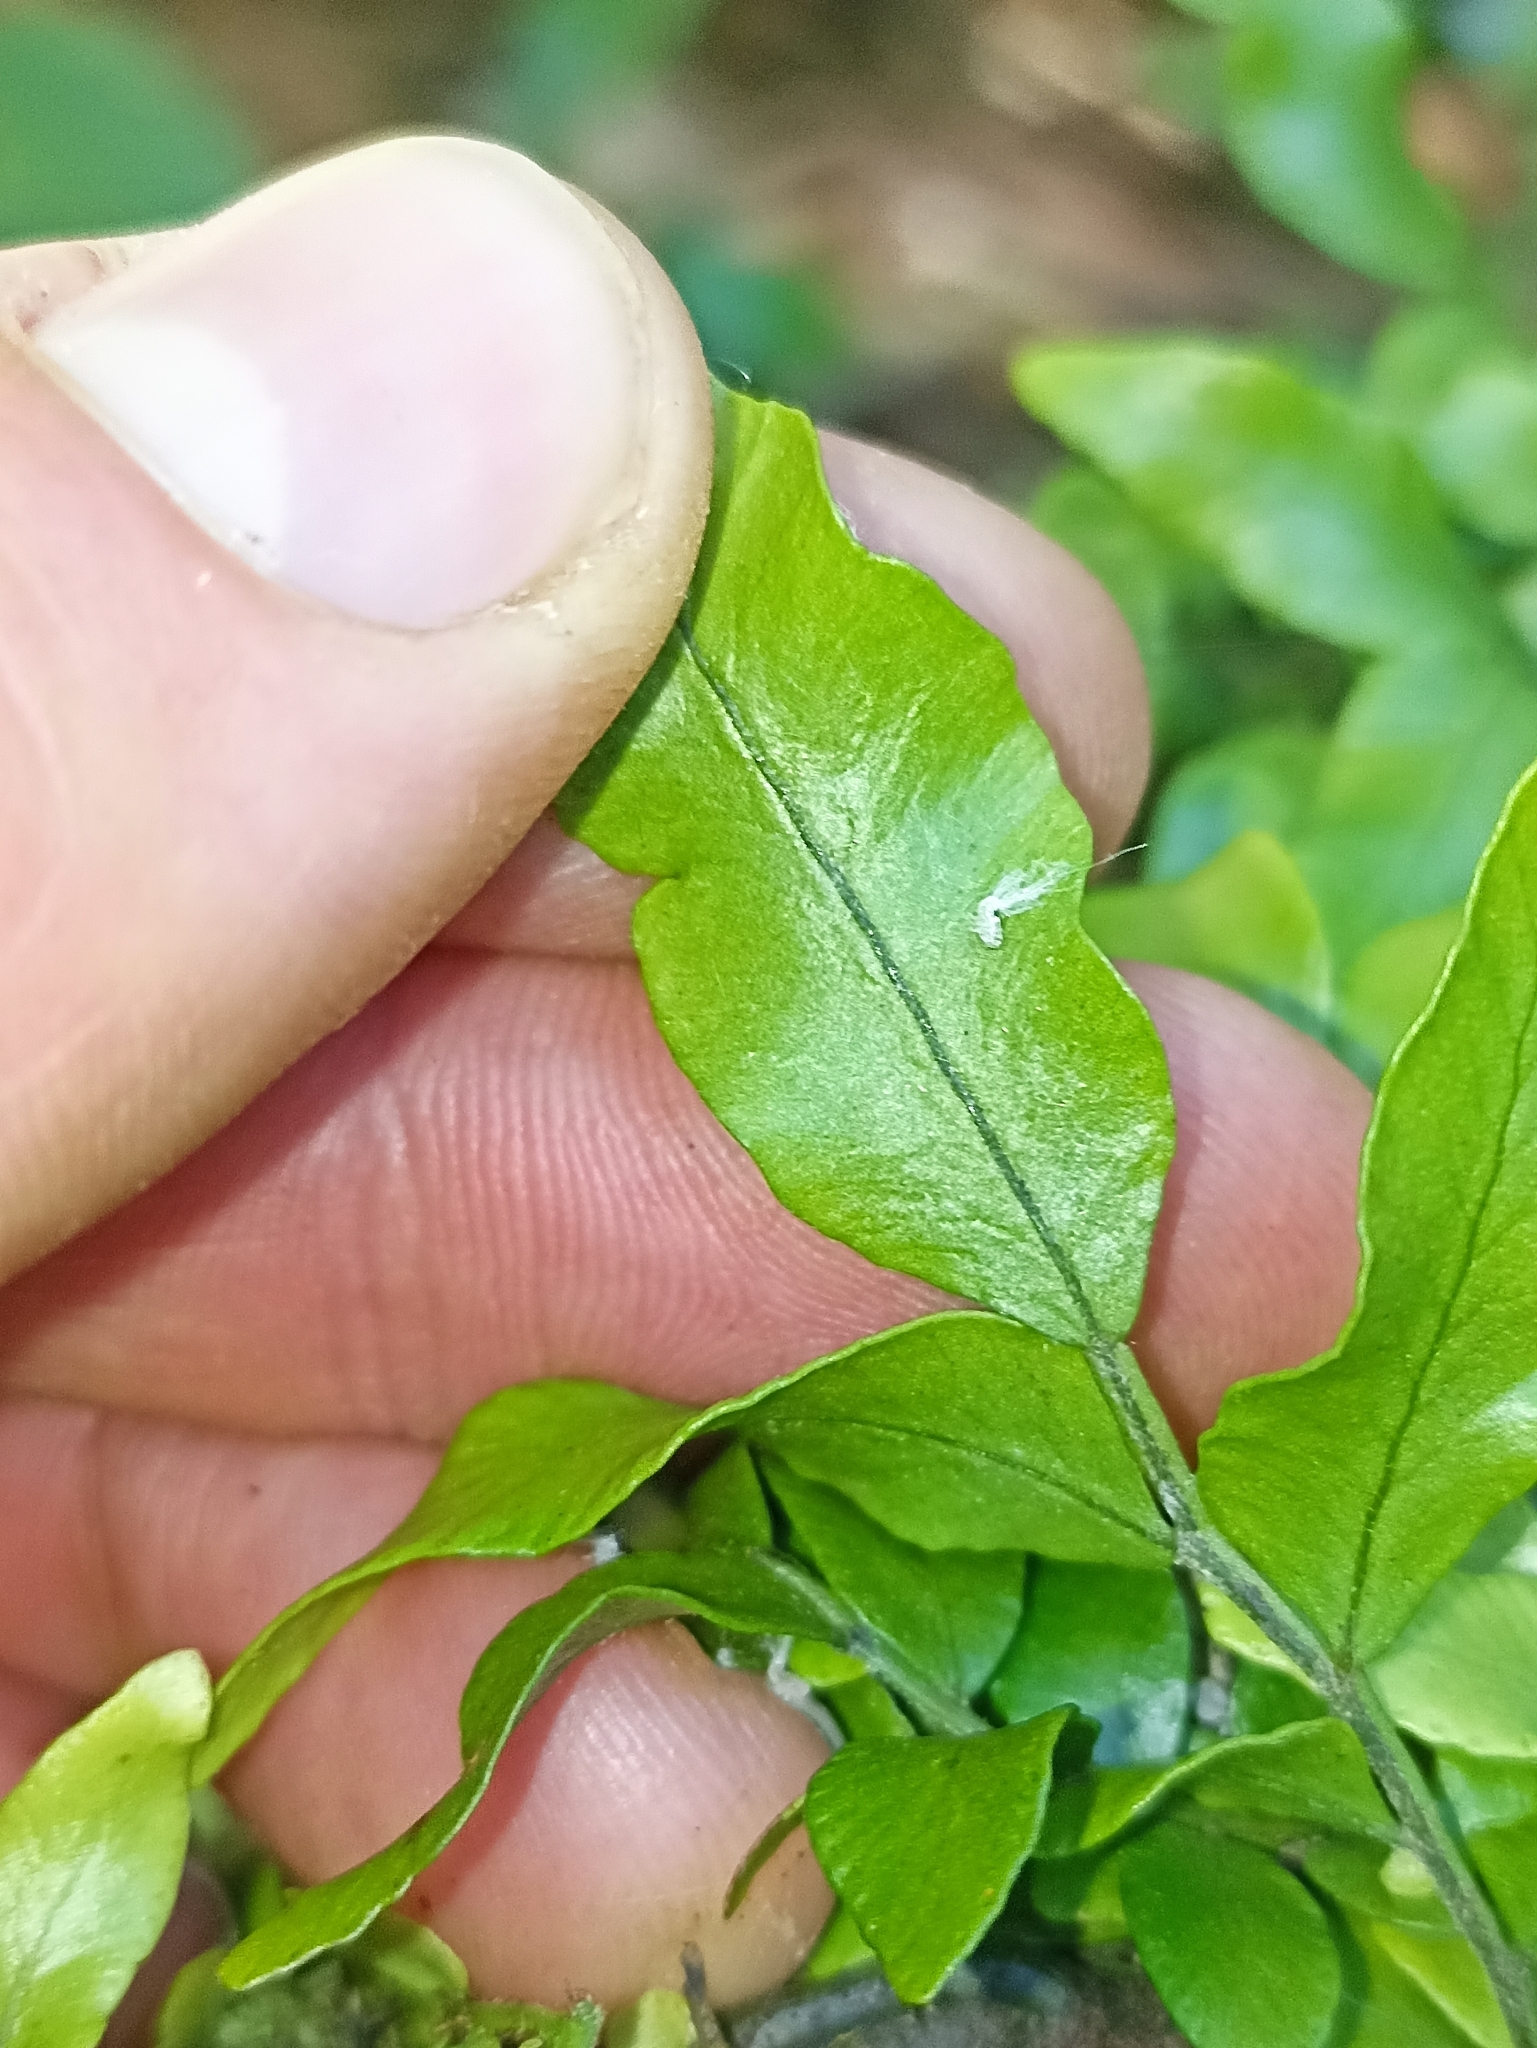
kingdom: Plantae
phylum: Tracheophyta
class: Polypodiopsida
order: Polypodiales
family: Tectariaceae
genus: Arthropteris
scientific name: Arthropteris tenella
